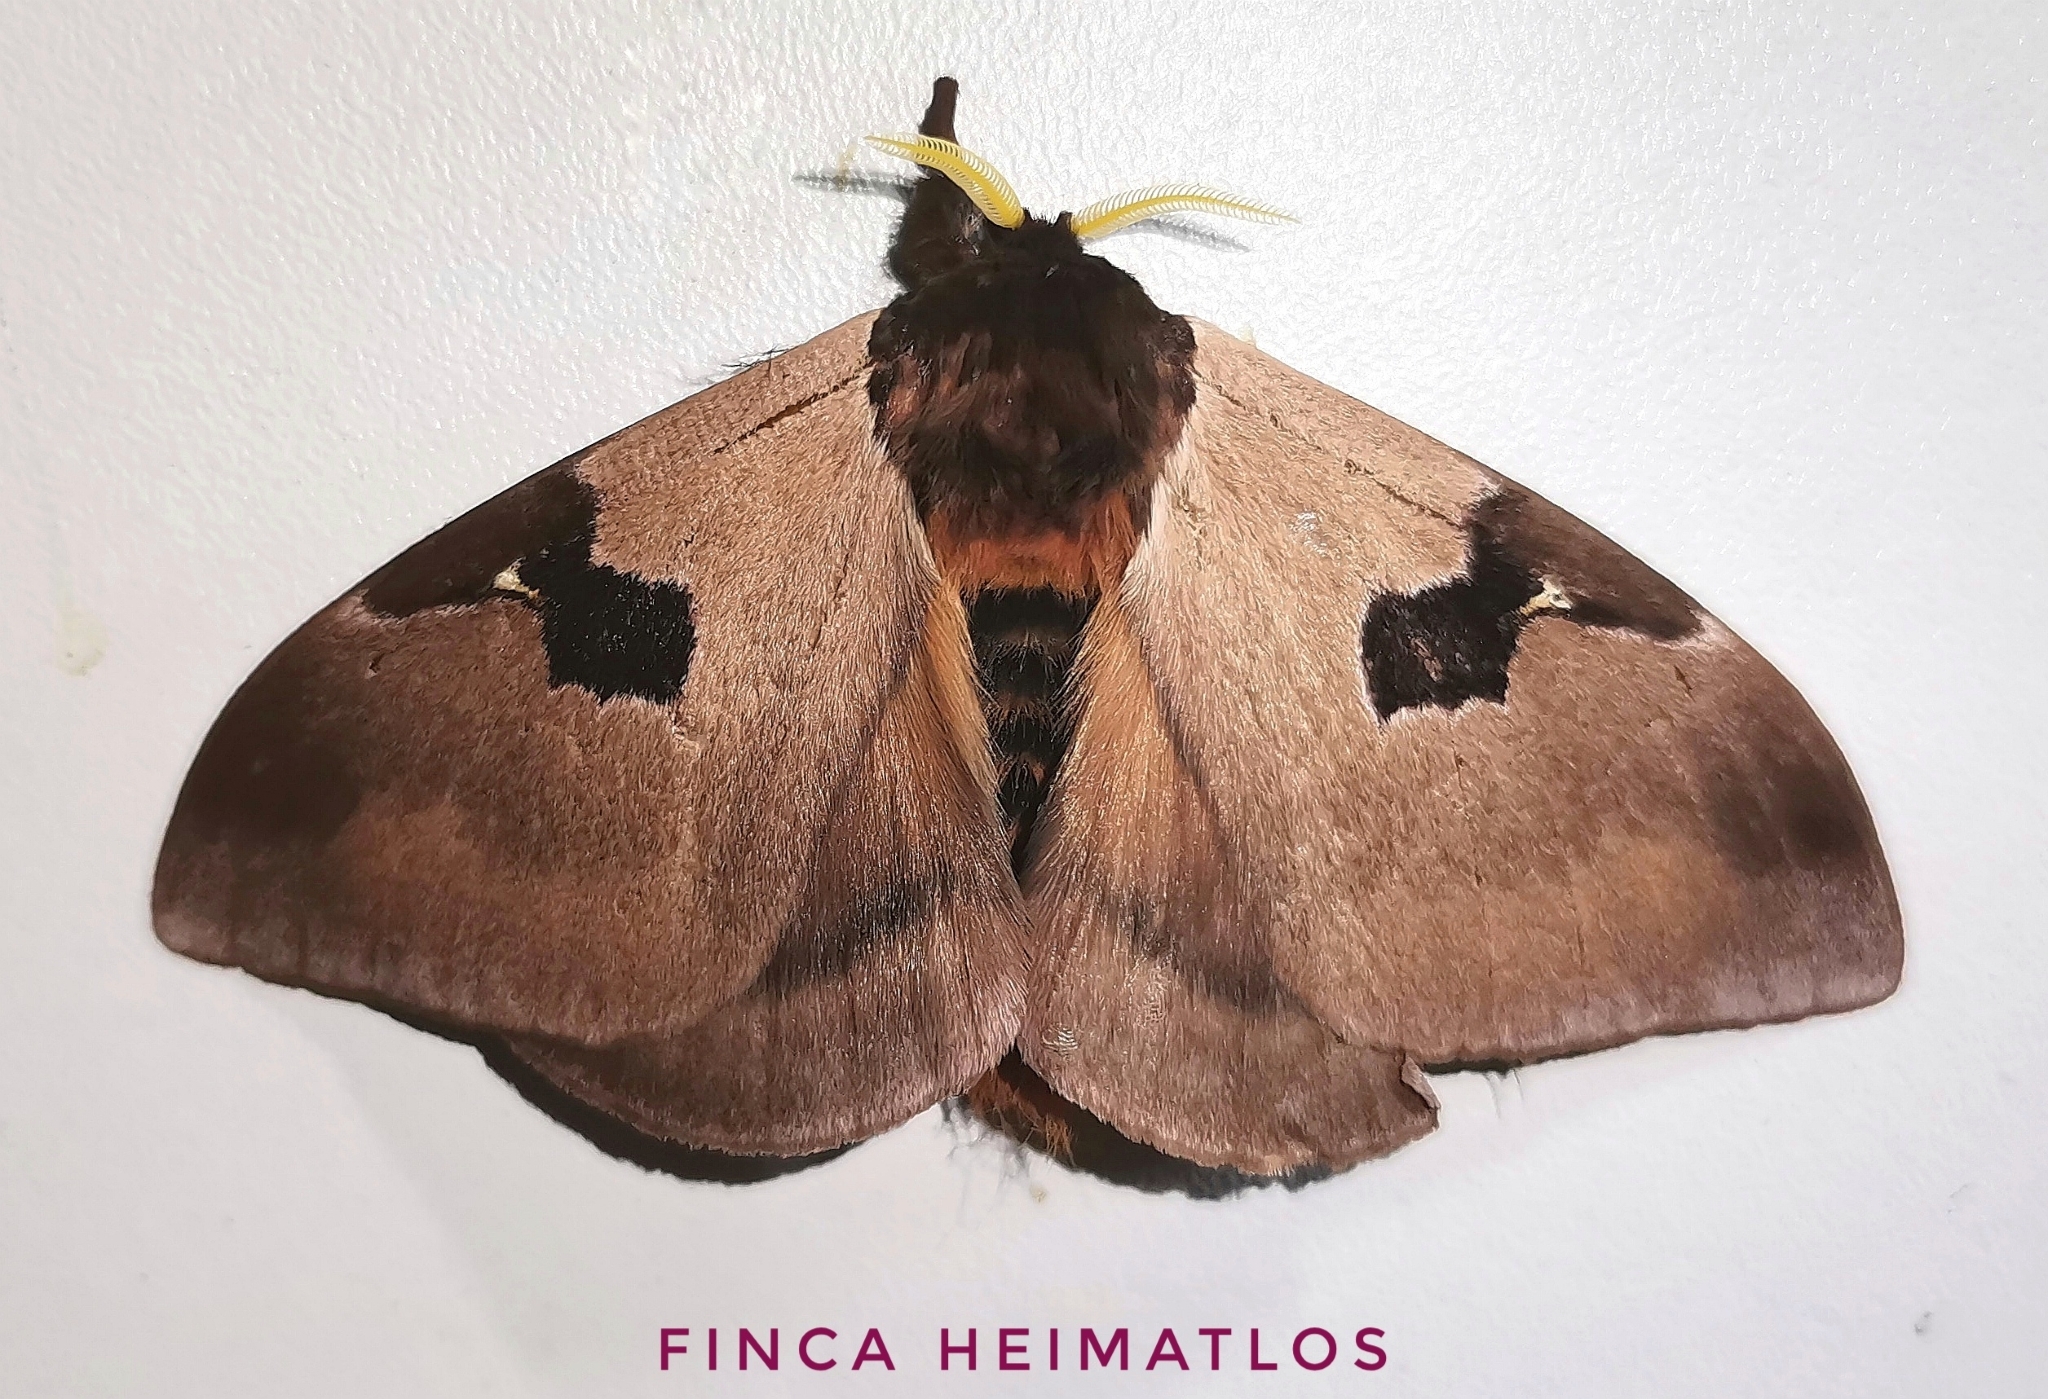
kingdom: Animalia
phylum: Arthropoda
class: Insecta
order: Lepidoptera
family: Saturniidae
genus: Dirphia
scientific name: Dirphia
